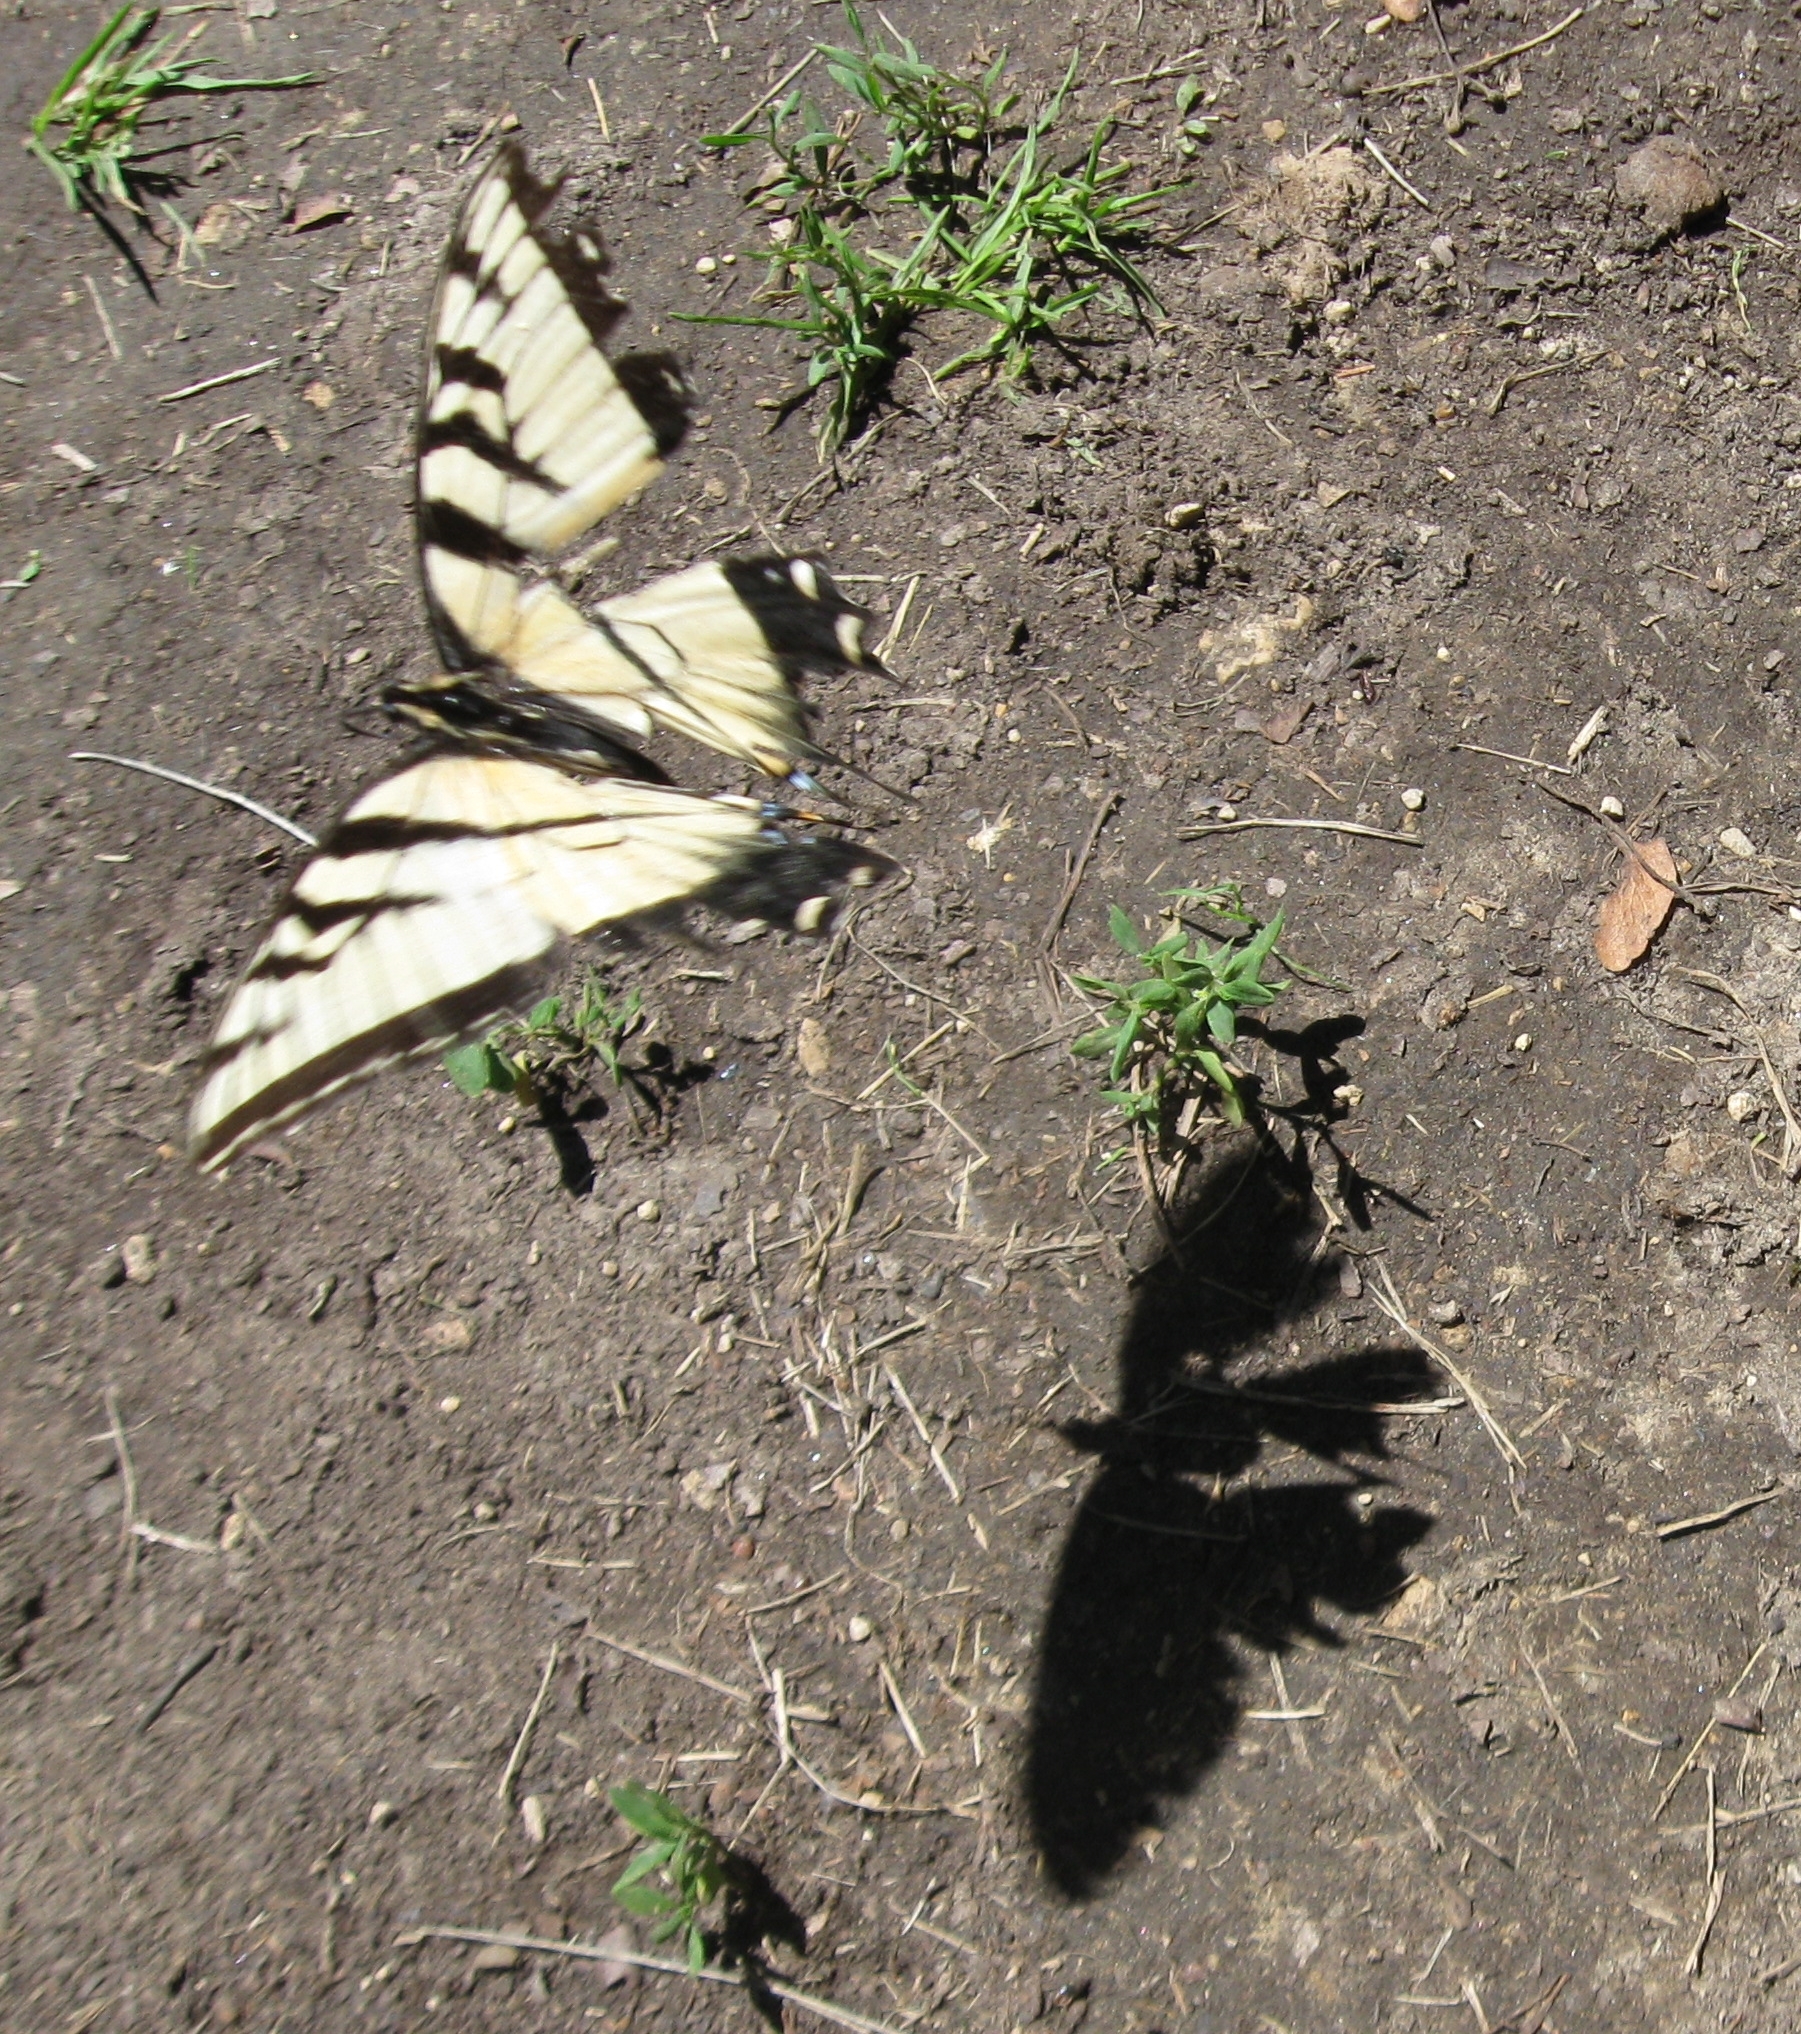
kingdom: Animalia
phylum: Arthropoda
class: Insecta
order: Lepidoptera
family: Papilionidae
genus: Papilio
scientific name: Papilio glaucus
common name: Tiger swallowtail
